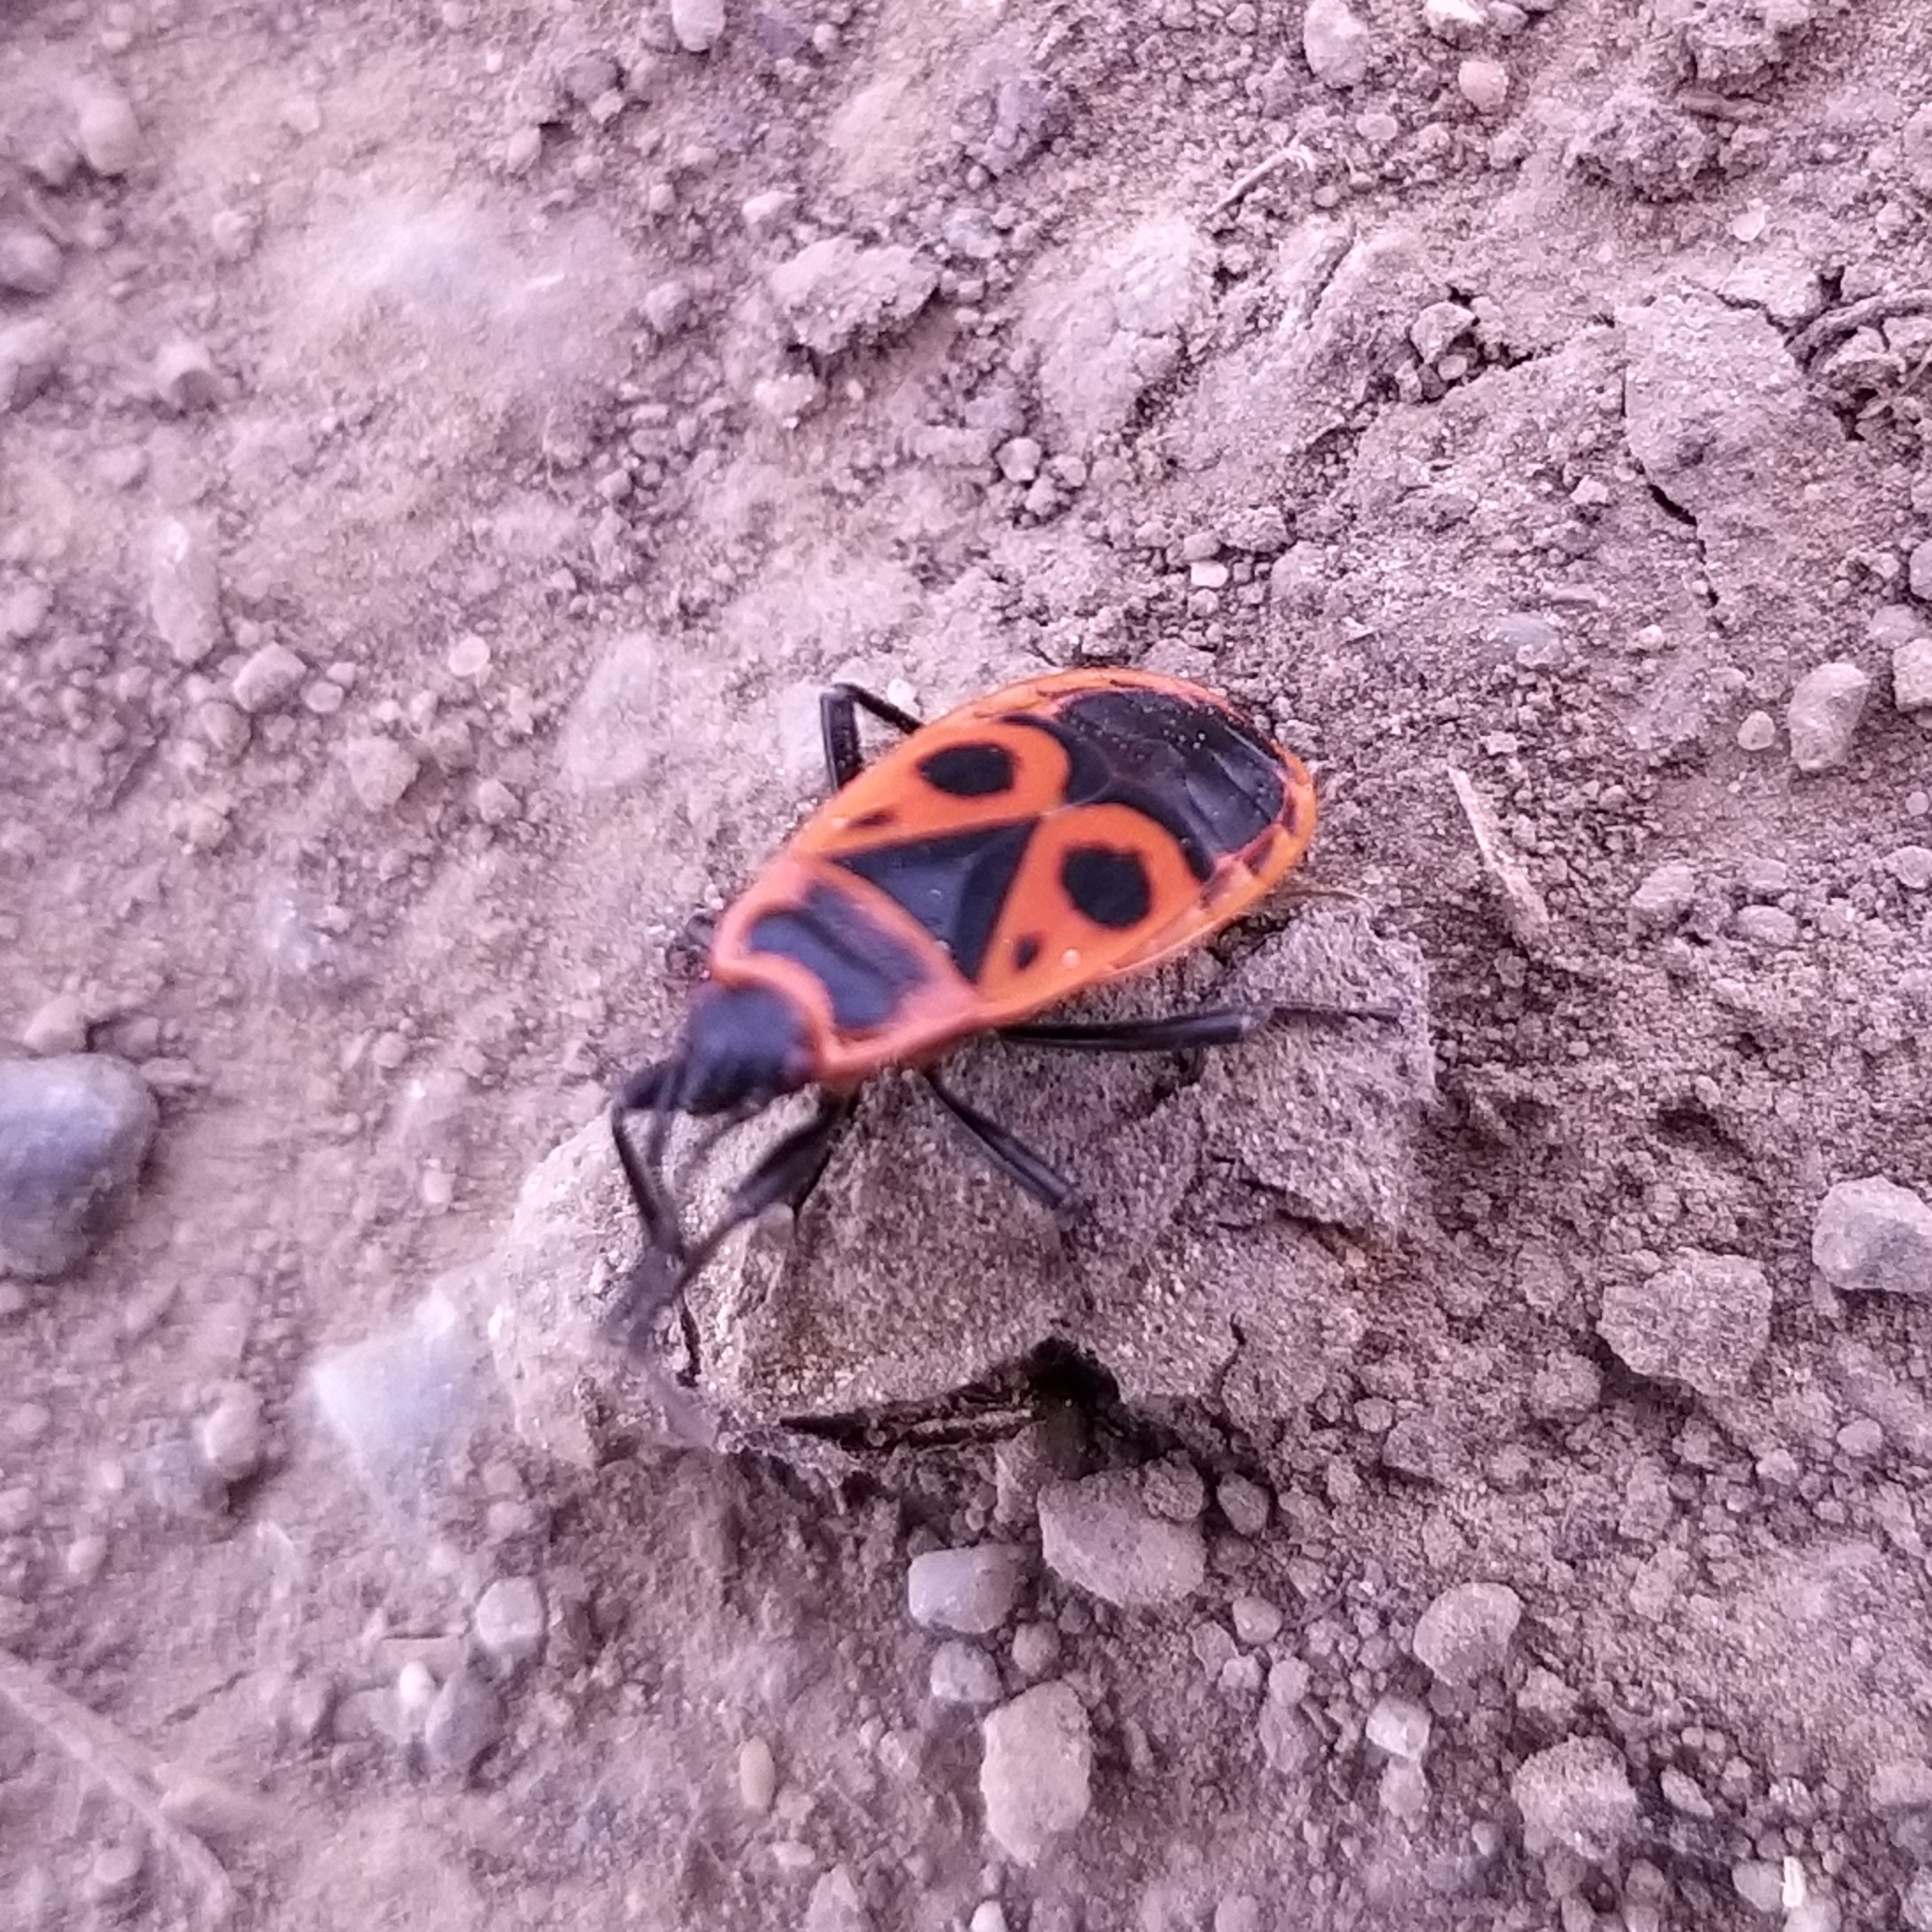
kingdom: Animalia
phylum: Arthropoda
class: Insecta
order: Hemiptera
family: Pyrrhocoridae
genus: Pyrrhocoris
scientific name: Pyrrhocoris apterus
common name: Firebug
